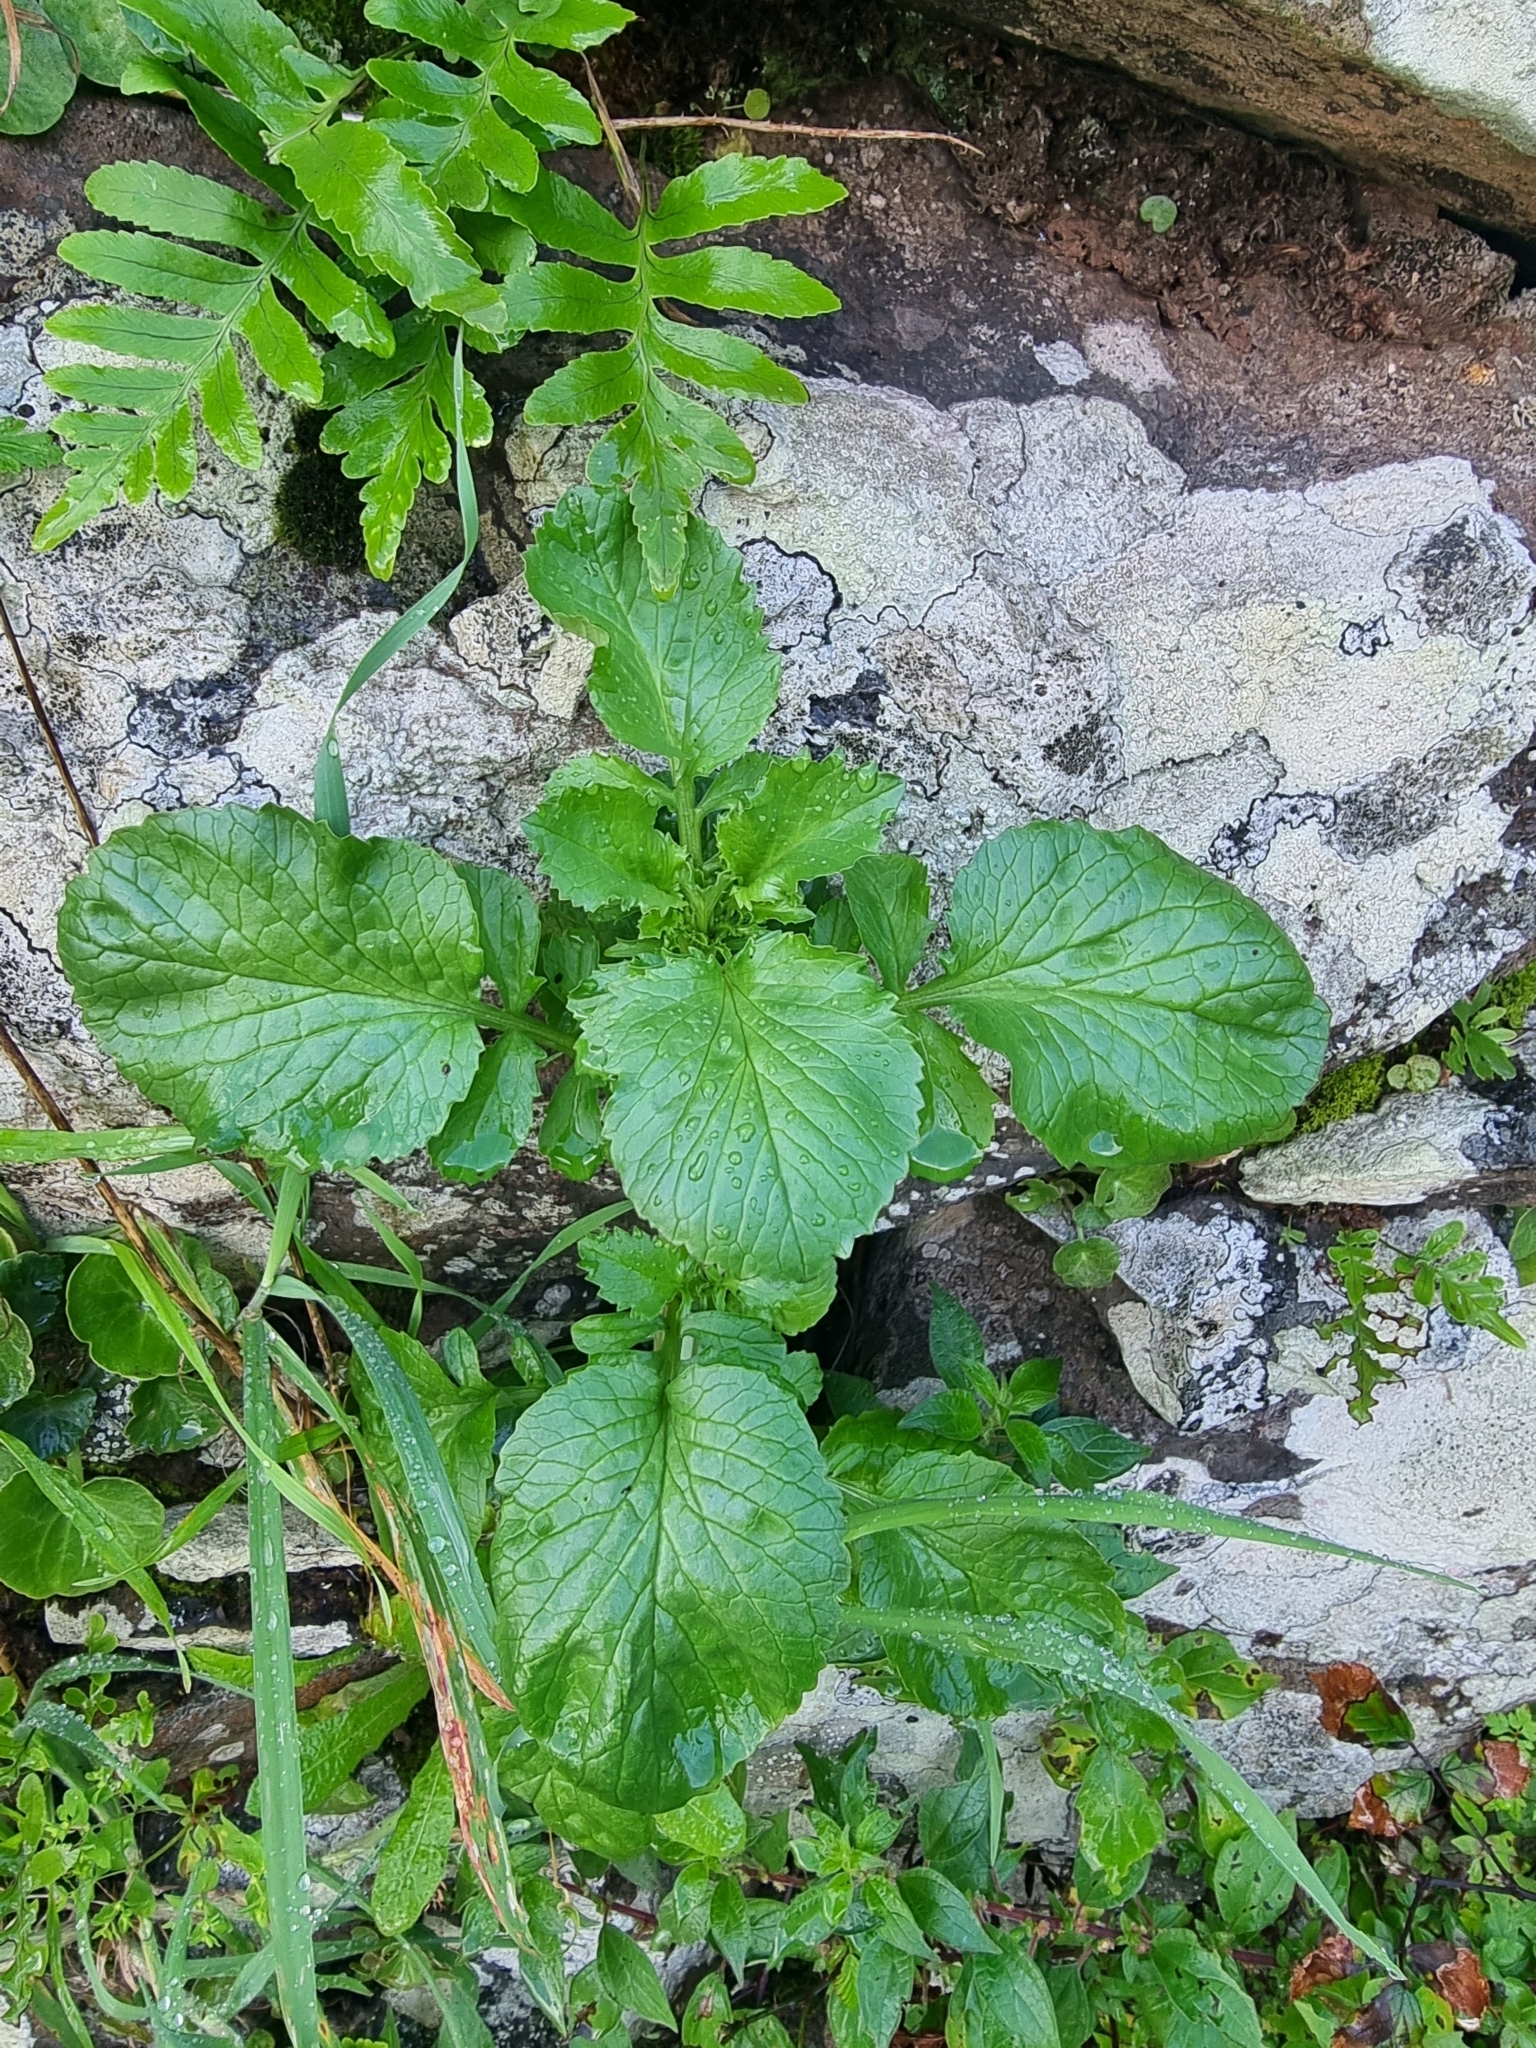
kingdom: Plantae
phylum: Tracheophyta
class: Magnoliopsida
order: Dipsacales
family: Caprifoliaceae
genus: Centranthus
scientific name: Centranthus calcitrapae
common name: Annual valerian
